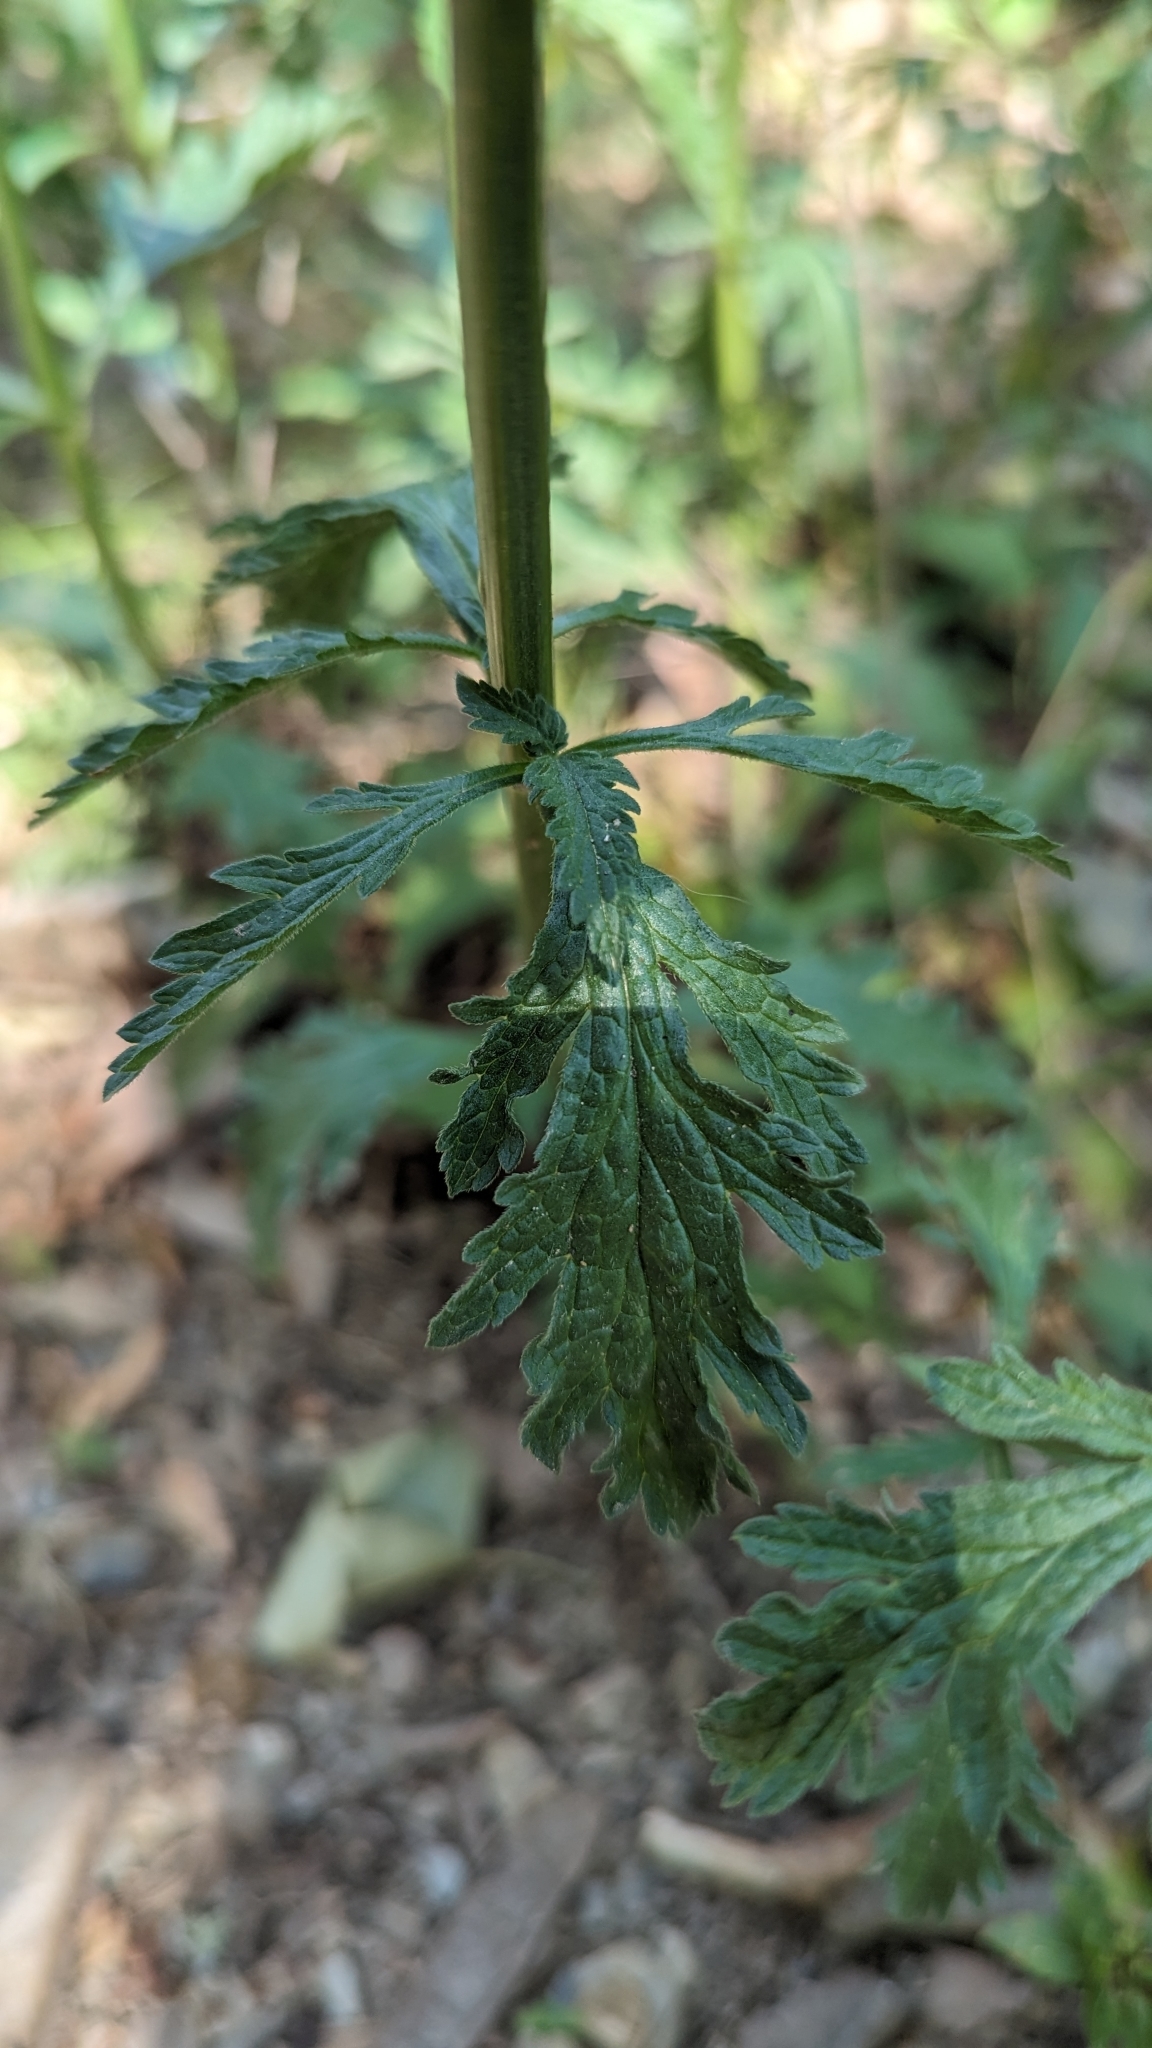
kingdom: Plantae
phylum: Tracheophyta
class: Magnoliopsida
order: Lamiales
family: Verbenaceae
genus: Verbena
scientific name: Verbena officinalis
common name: Vervain
